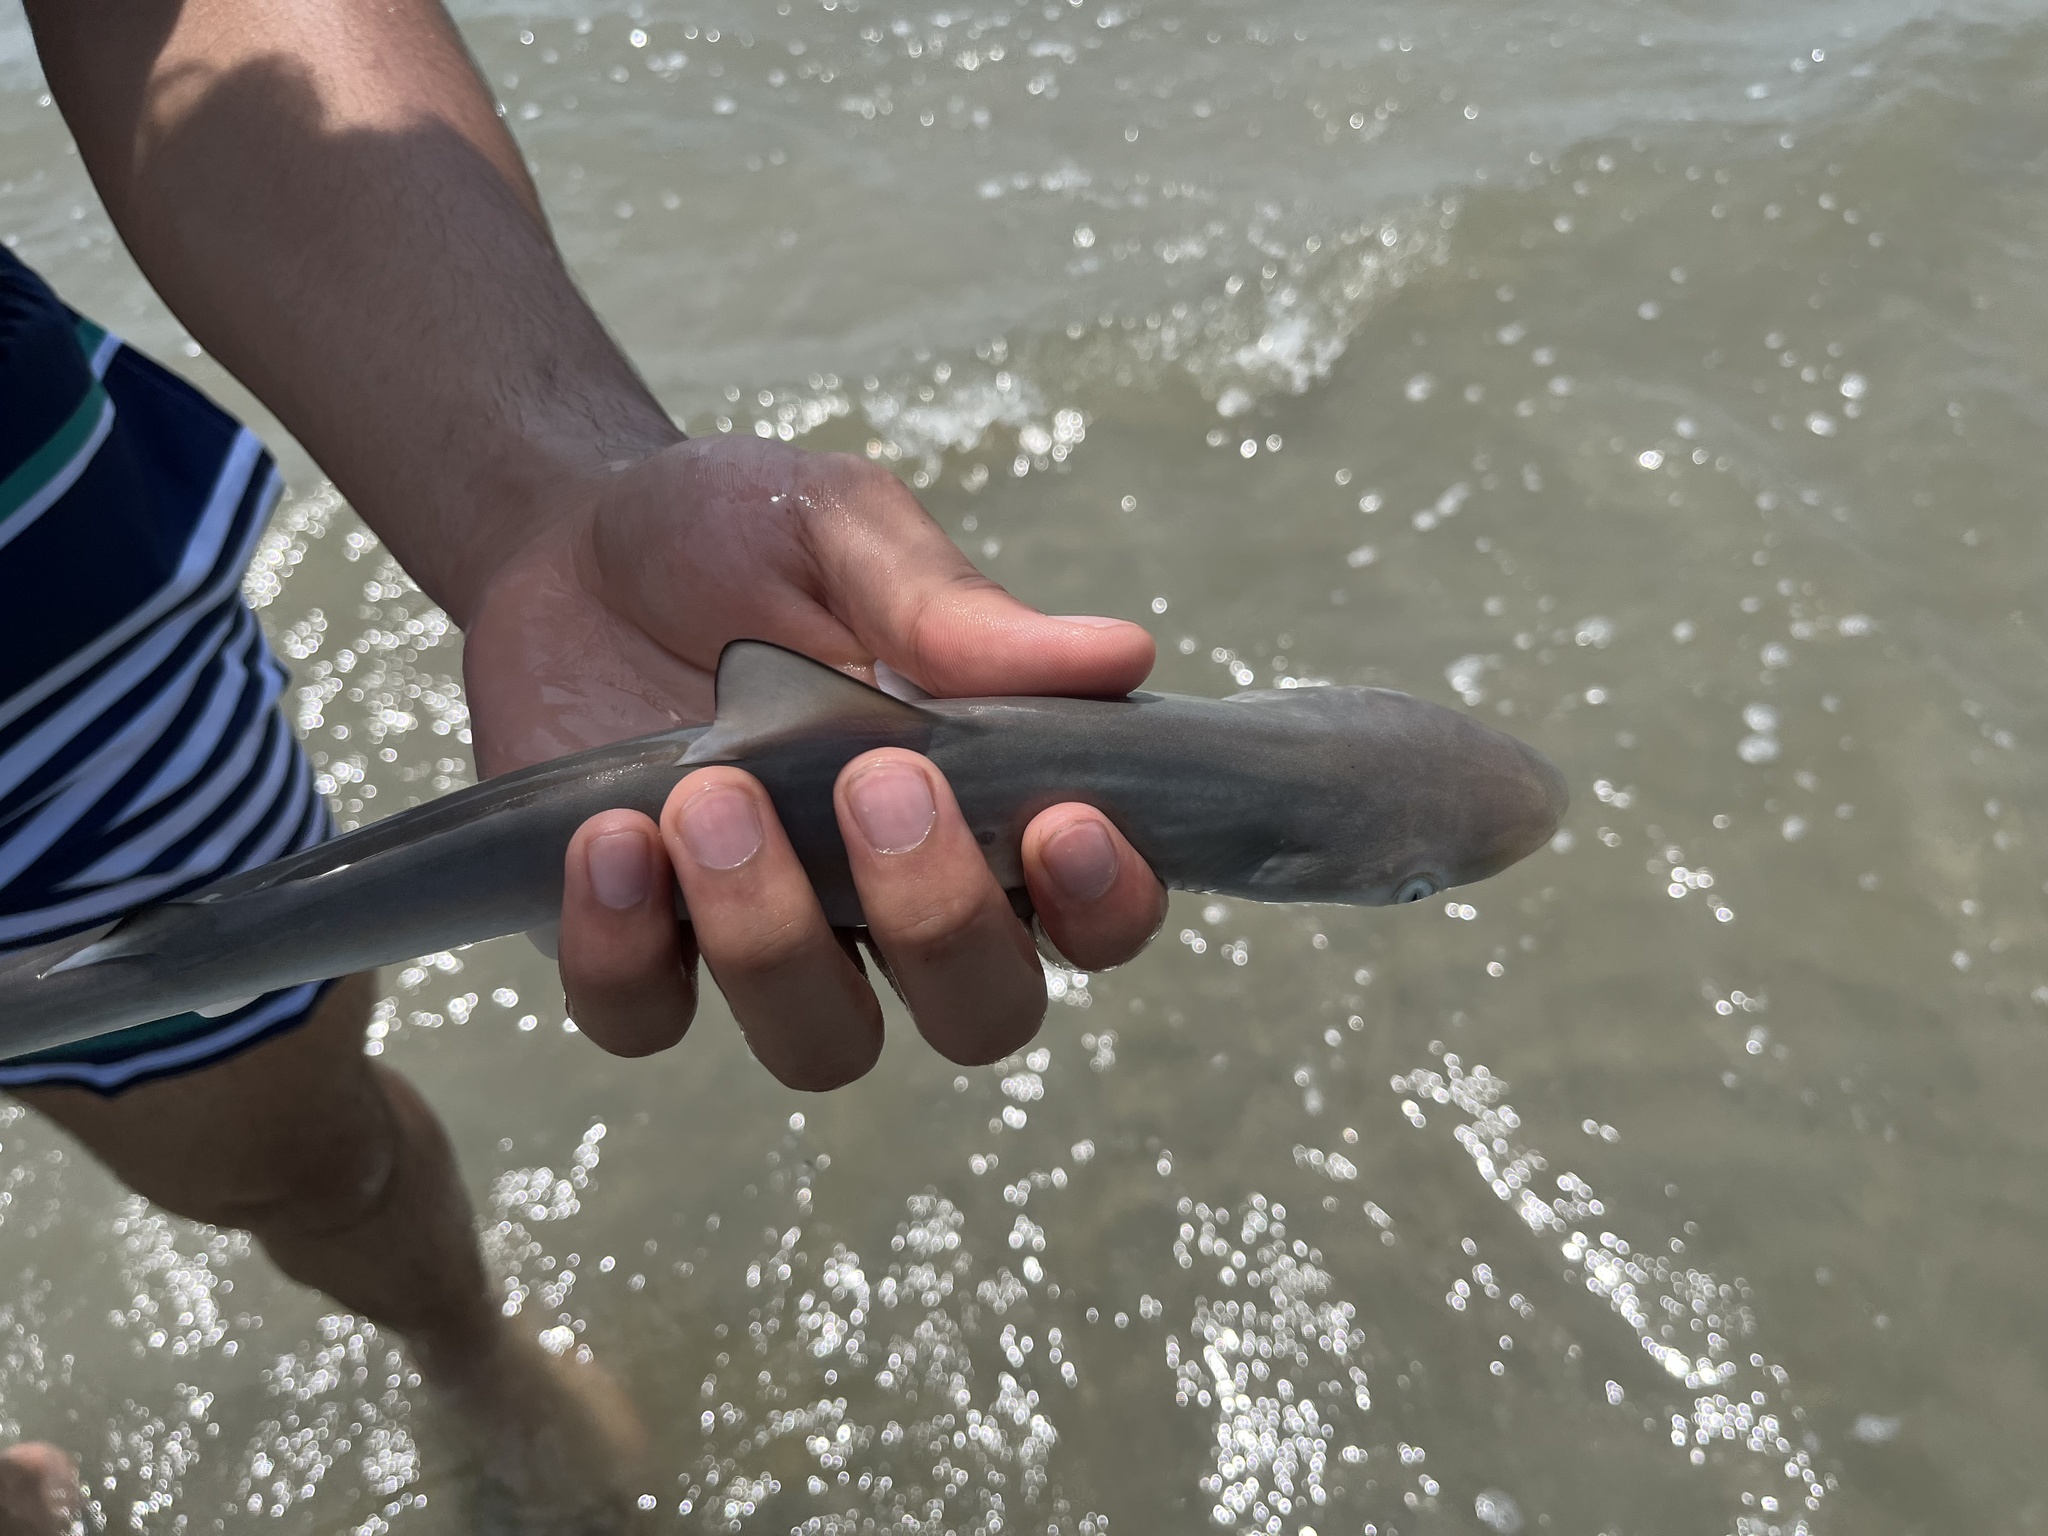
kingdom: Animalia
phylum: Chordata
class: Elasmobranchii
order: Carcharhiniformes
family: Carcharhinidae
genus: Rhizoprionodon
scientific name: Rhizoprionodon terraenovae
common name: Atlantic sharpnose shark
